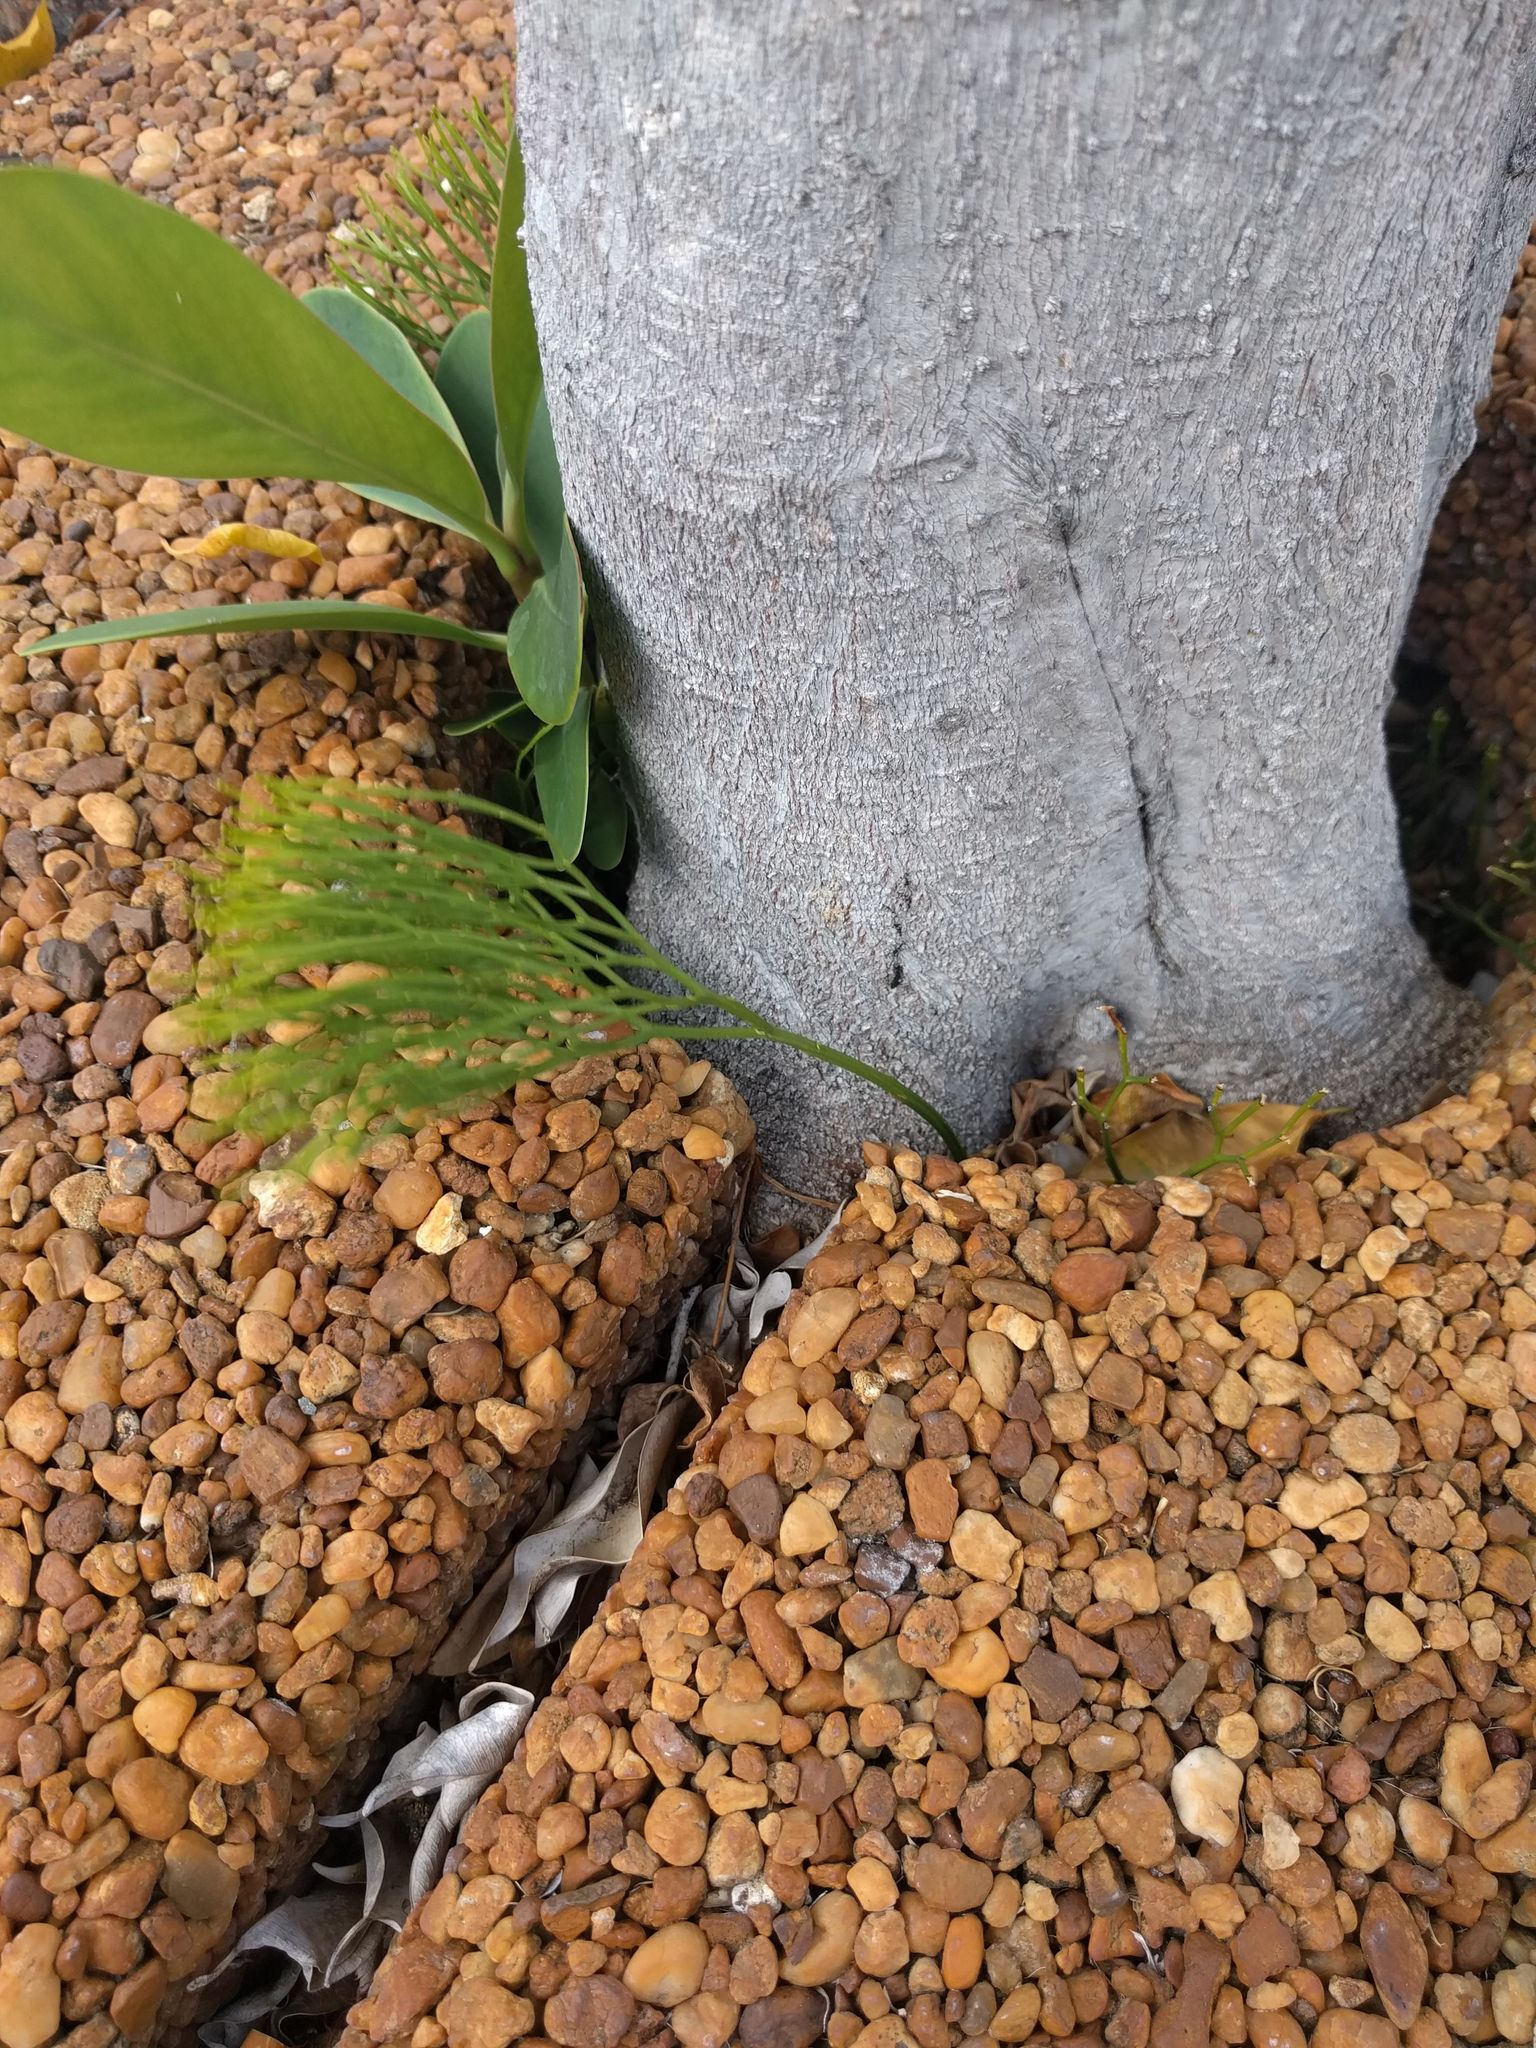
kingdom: Plantae
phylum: Tracheophyta
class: Polypodiopsida
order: Psilotales
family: Psilotaceae
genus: Psilotum
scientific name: Psilotum nudum
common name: Skeleton fork fern
